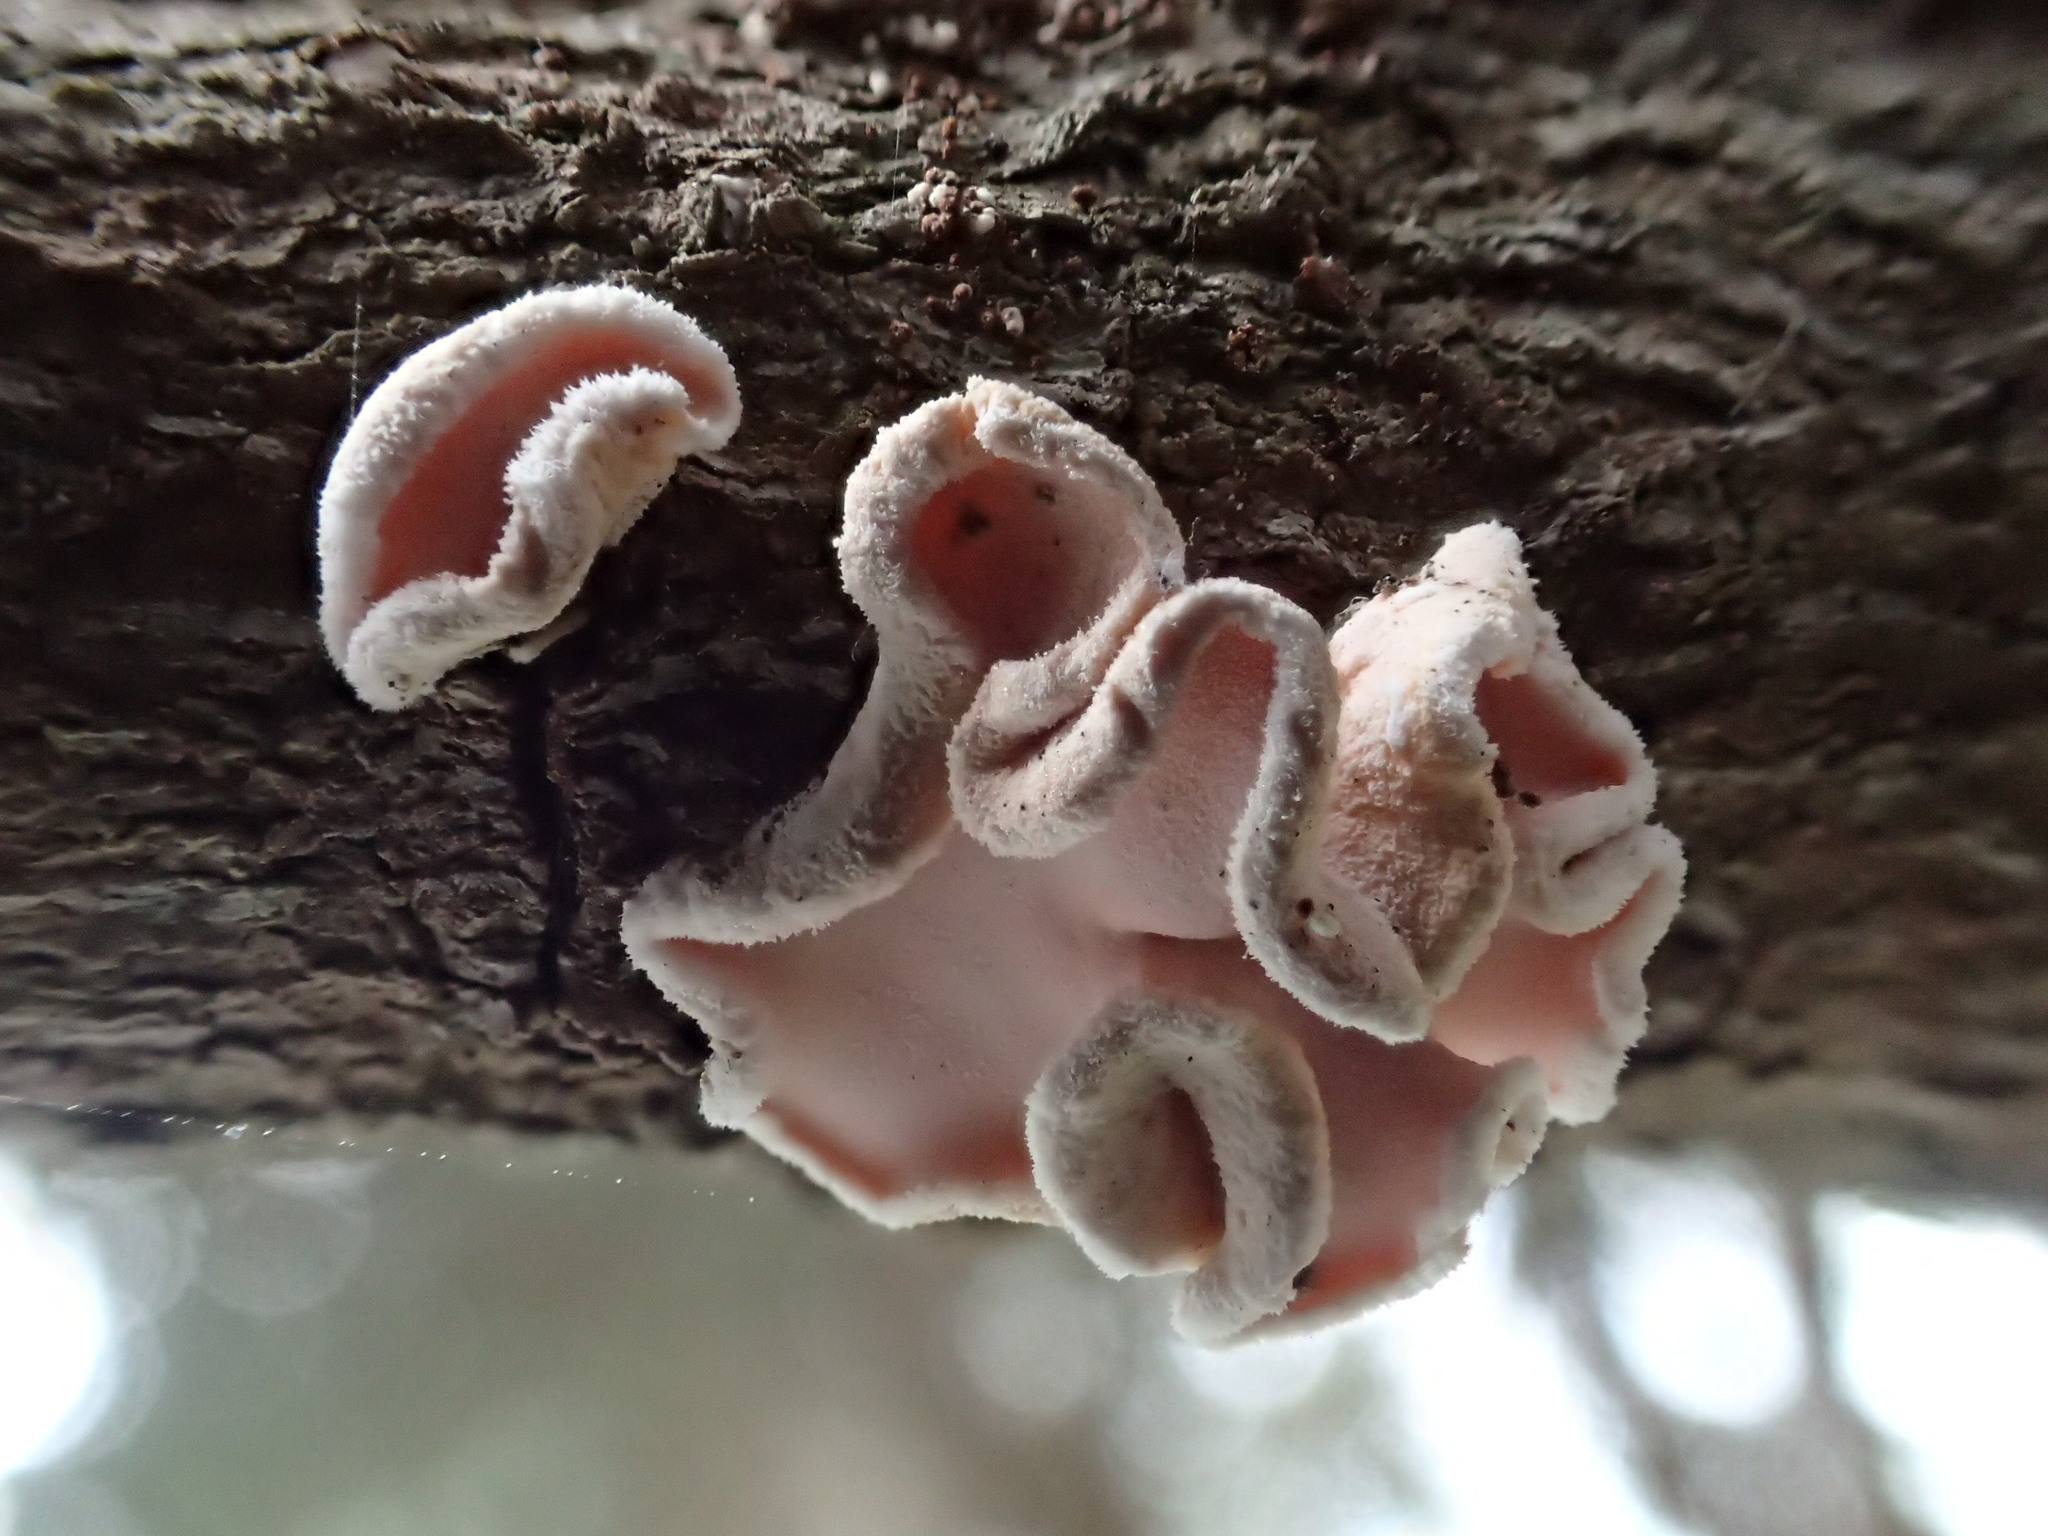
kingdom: Fungi
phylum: Basidiomycota
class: Agaricomycetes
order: Russulales
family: Stereaceae
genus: Gloeosoma
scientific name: Gloeosoma zealandicum
